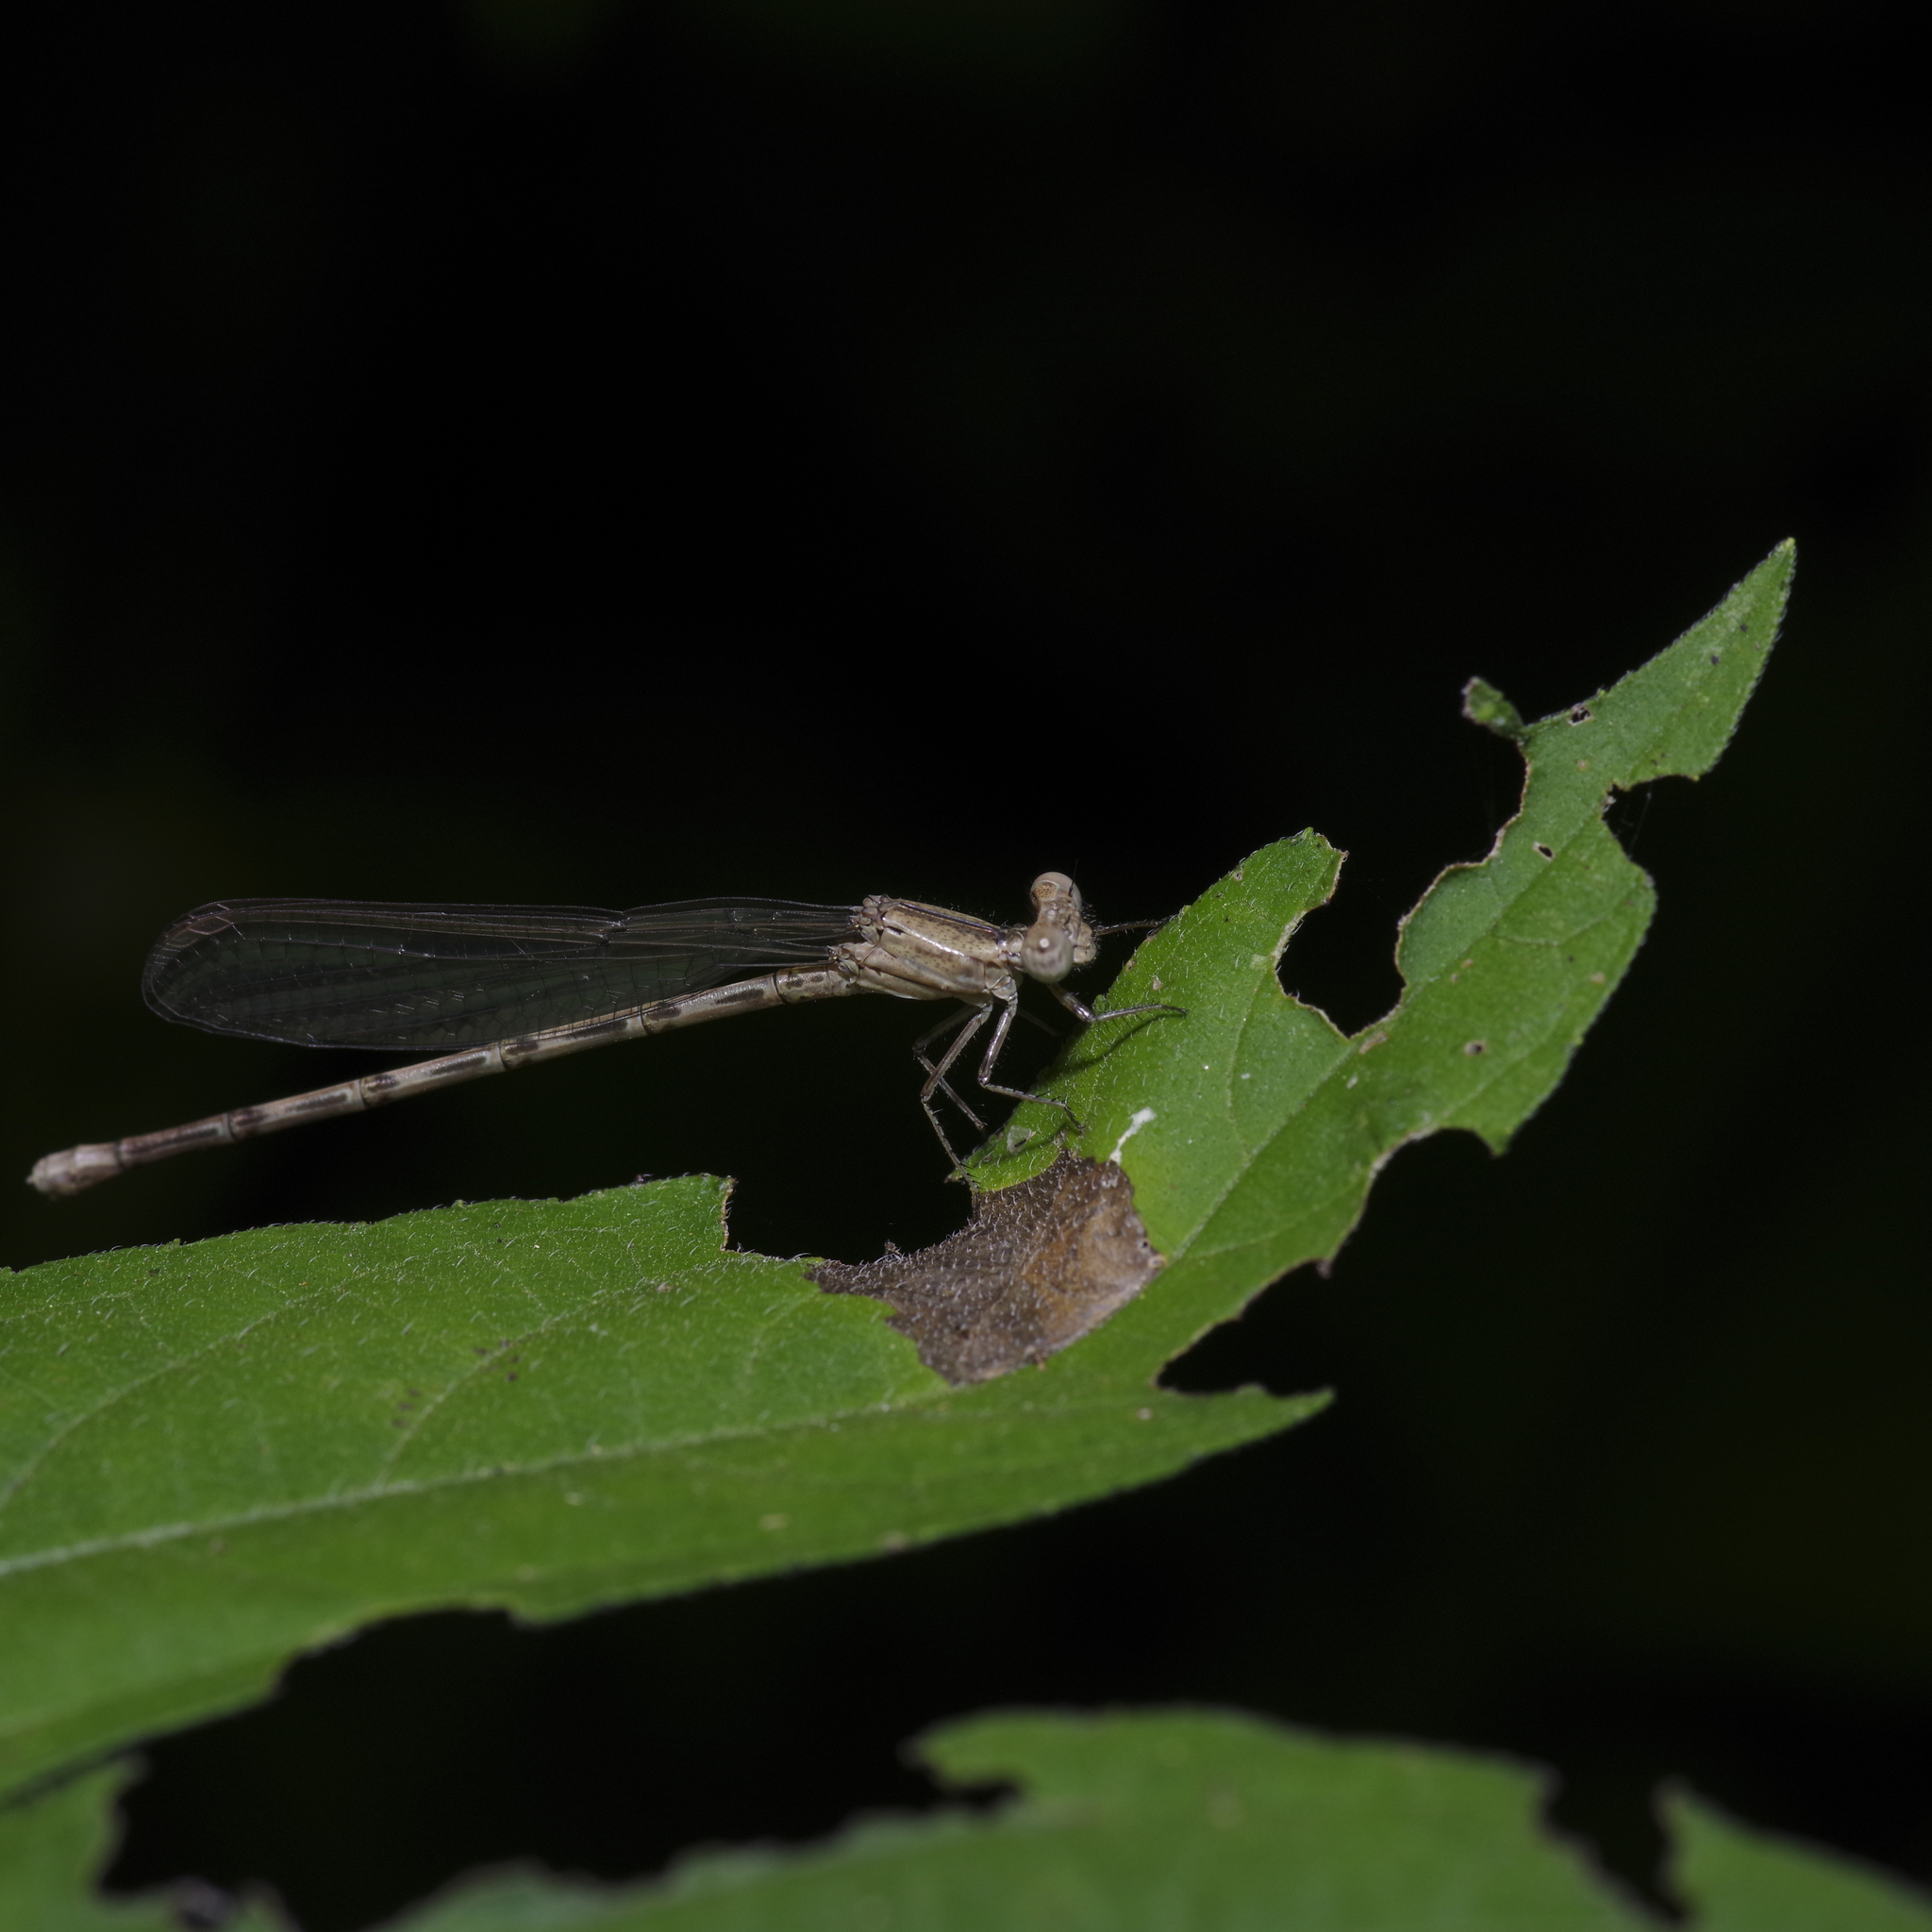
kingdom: Animalia
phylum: Arthropoda
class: Insecta
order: Odonata
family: Coenagrionidae
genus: Argia
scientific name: Argia immunda
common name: Kiowa dancer
